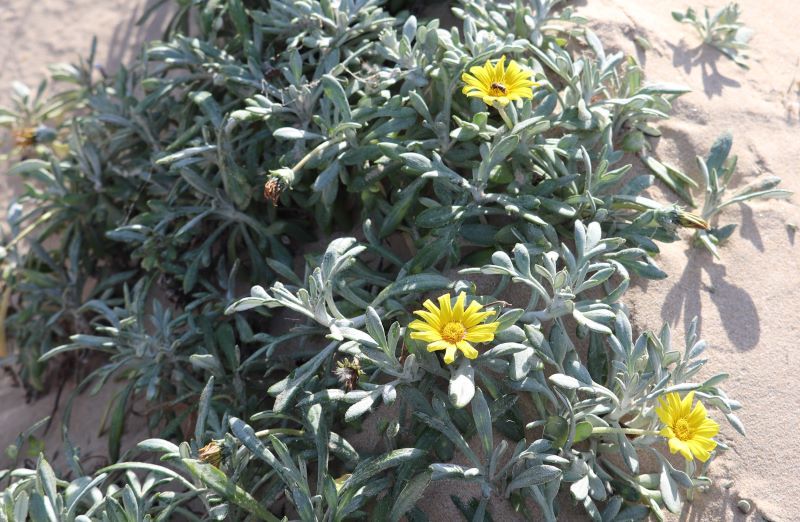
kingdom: Plantae
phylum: Tracheophyta
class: Magnoliopsida
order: Asterales
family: Asteraceae
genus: Gazania
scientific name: Gazania rigens
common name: Treasureflower
